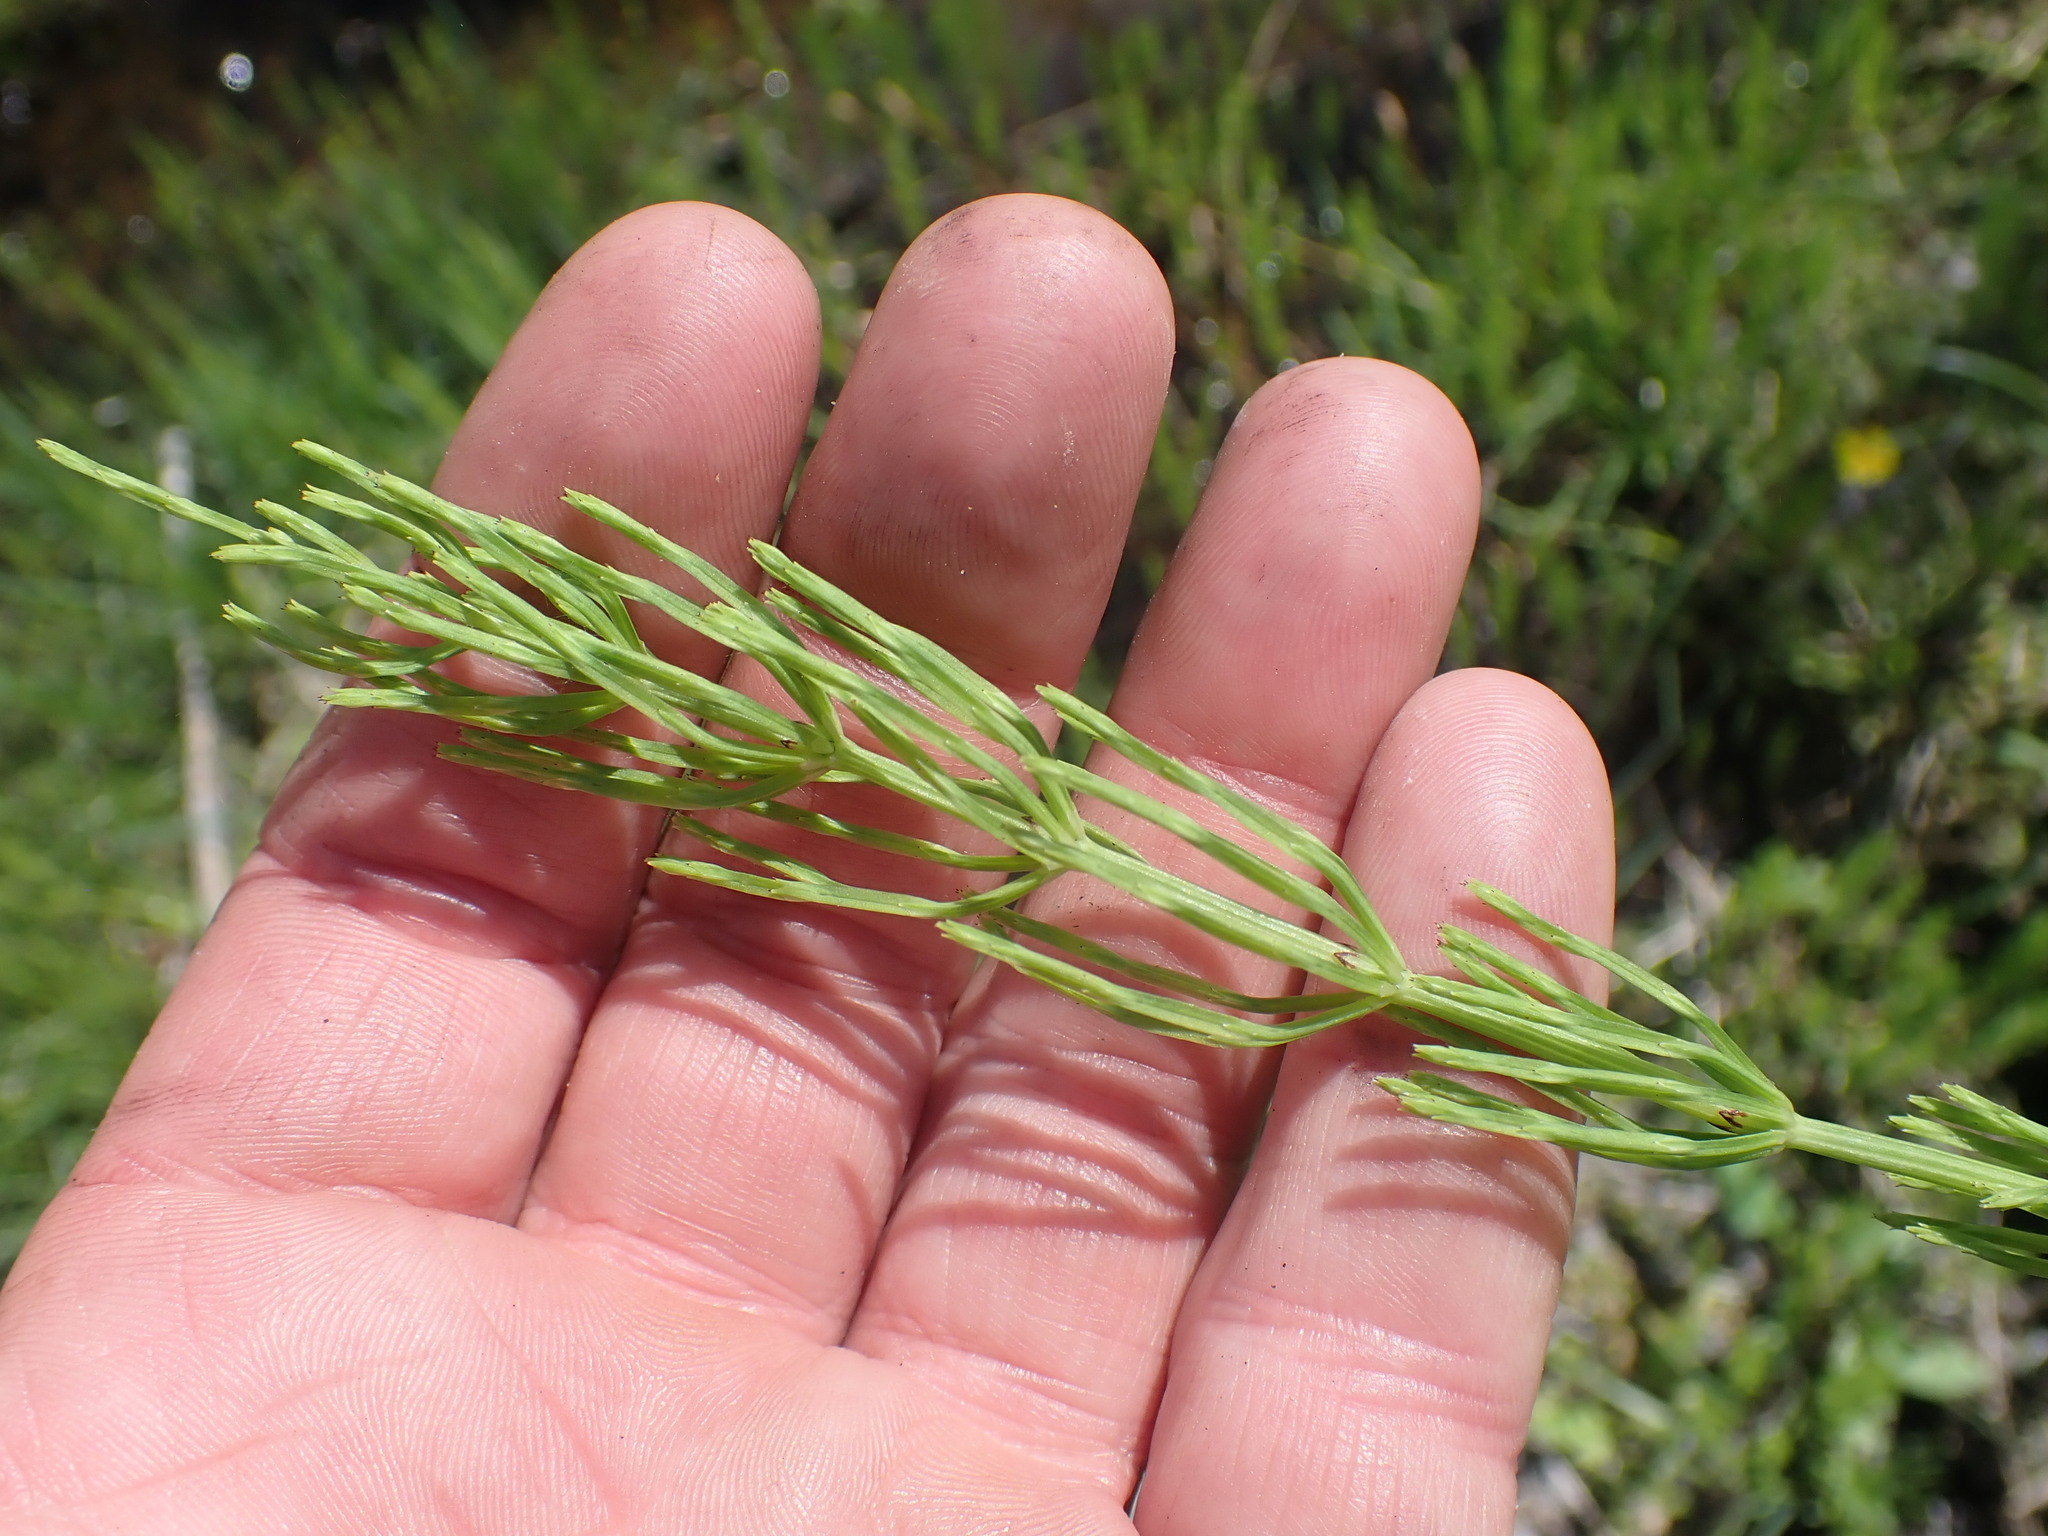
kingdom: Plantae
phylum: Tracheophyta
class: Polypodiopsida
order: Equisetales
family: Equisetaceae
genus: Equisetum
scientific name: Equisetum arvense
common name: Field horsetail
